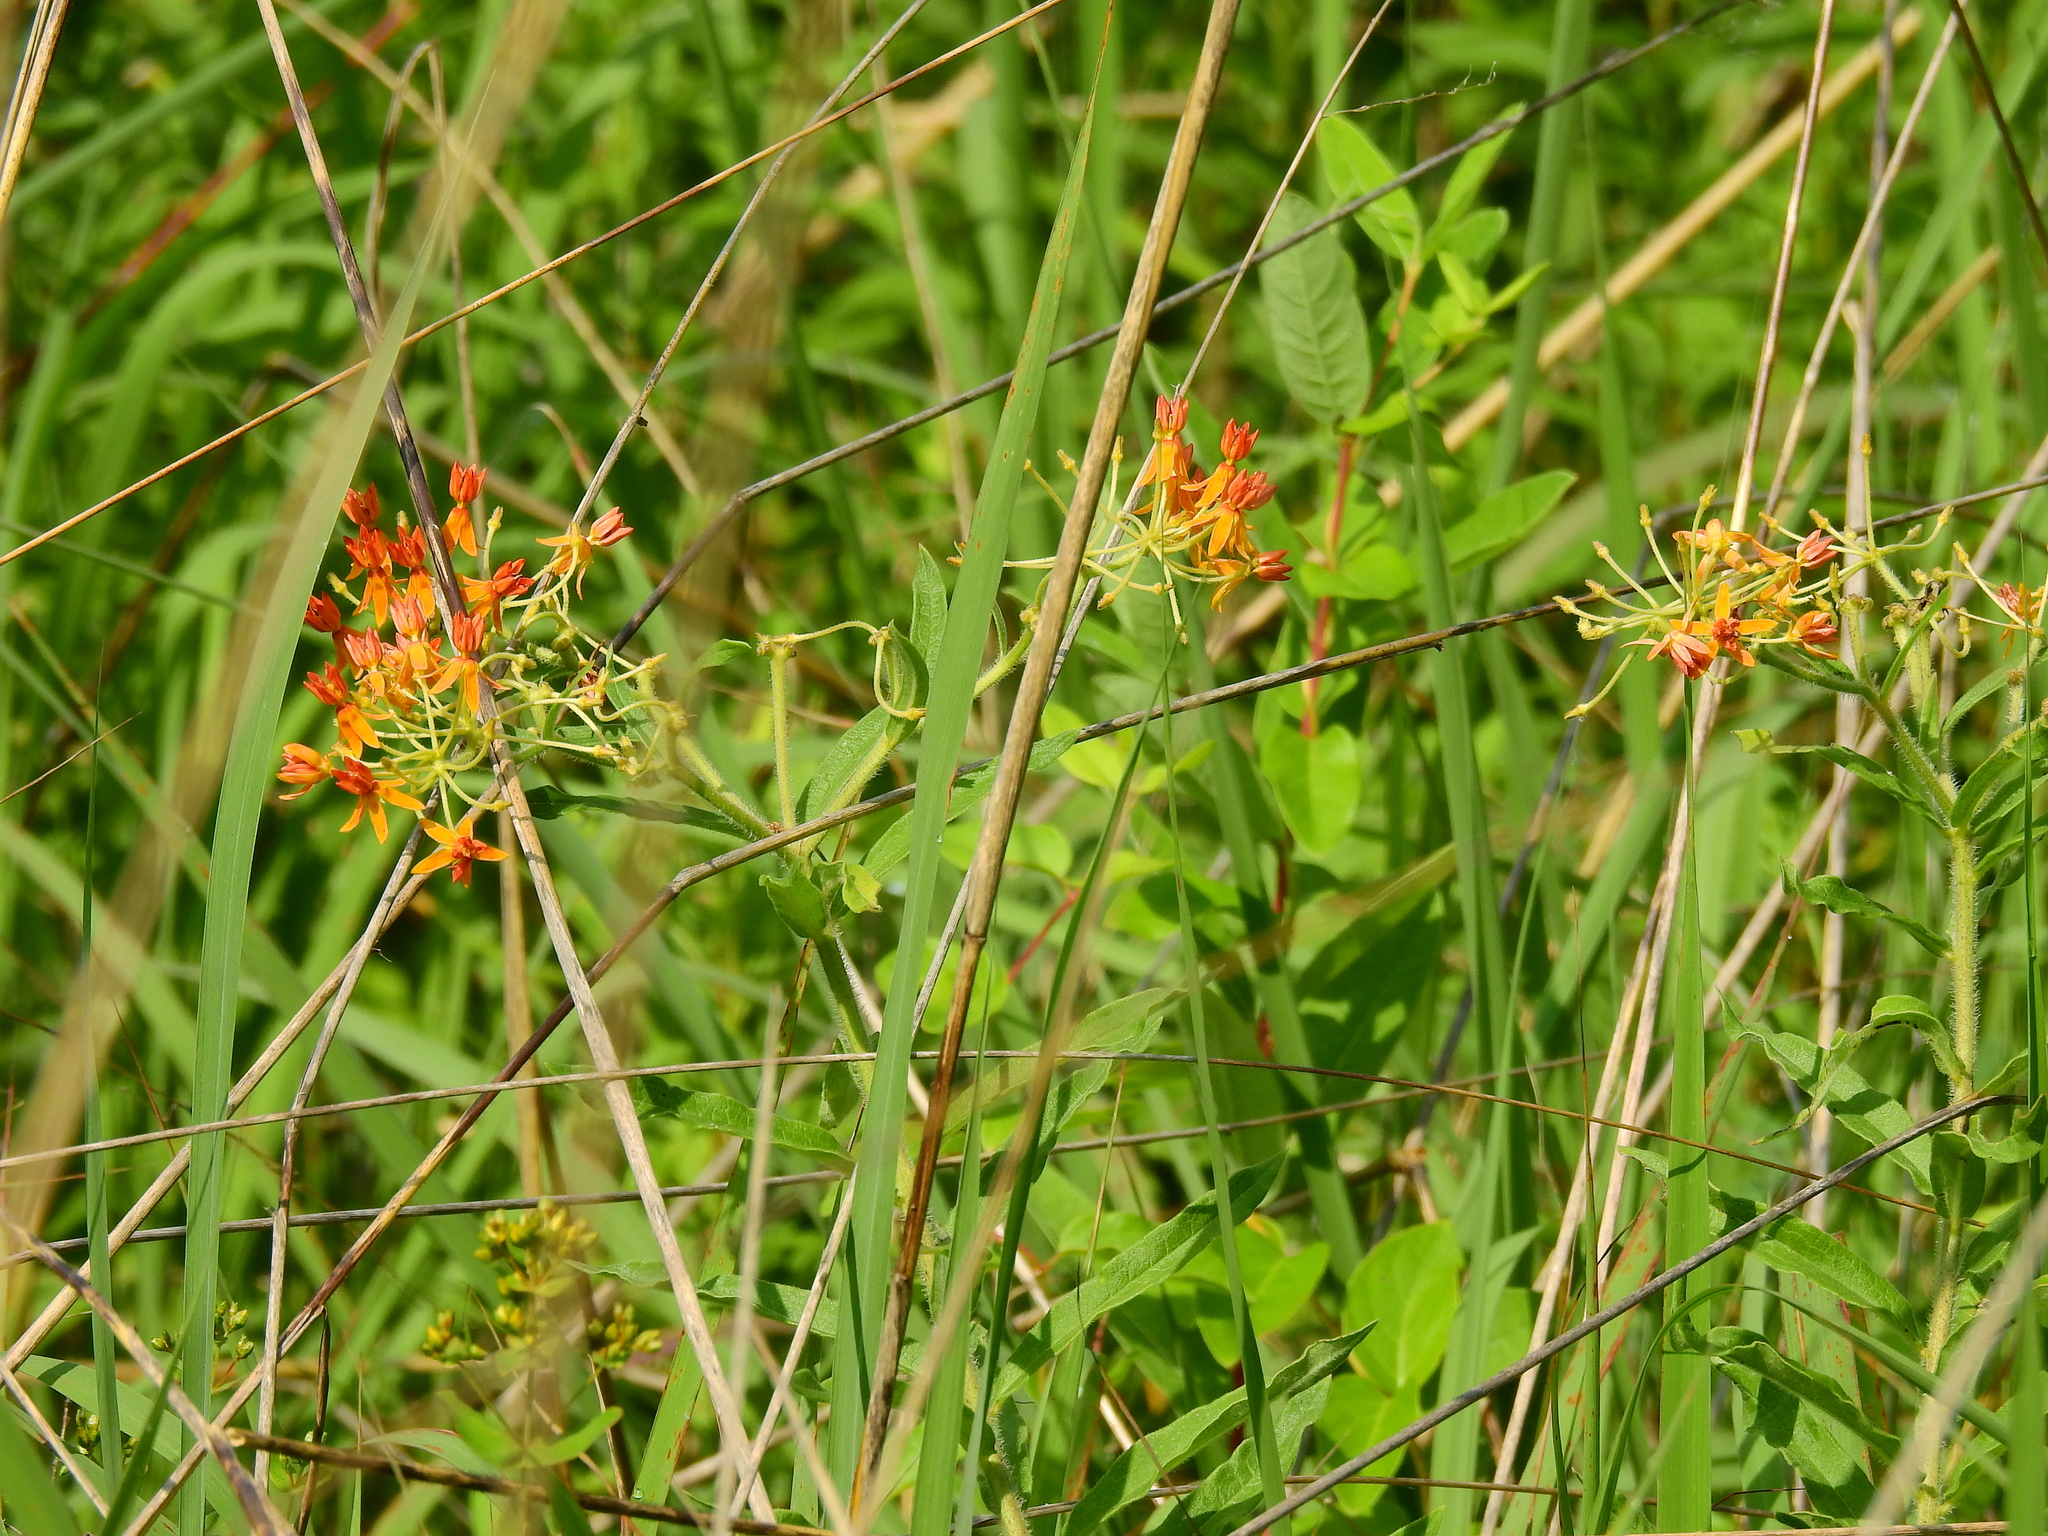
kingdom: Plantae
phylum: Tracheophyta
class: Magnoliopsida
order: Gentianales
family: Apocynaceae
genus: Asclepias
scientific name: Asclepias tuberosa
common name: Butterfly milkweed
